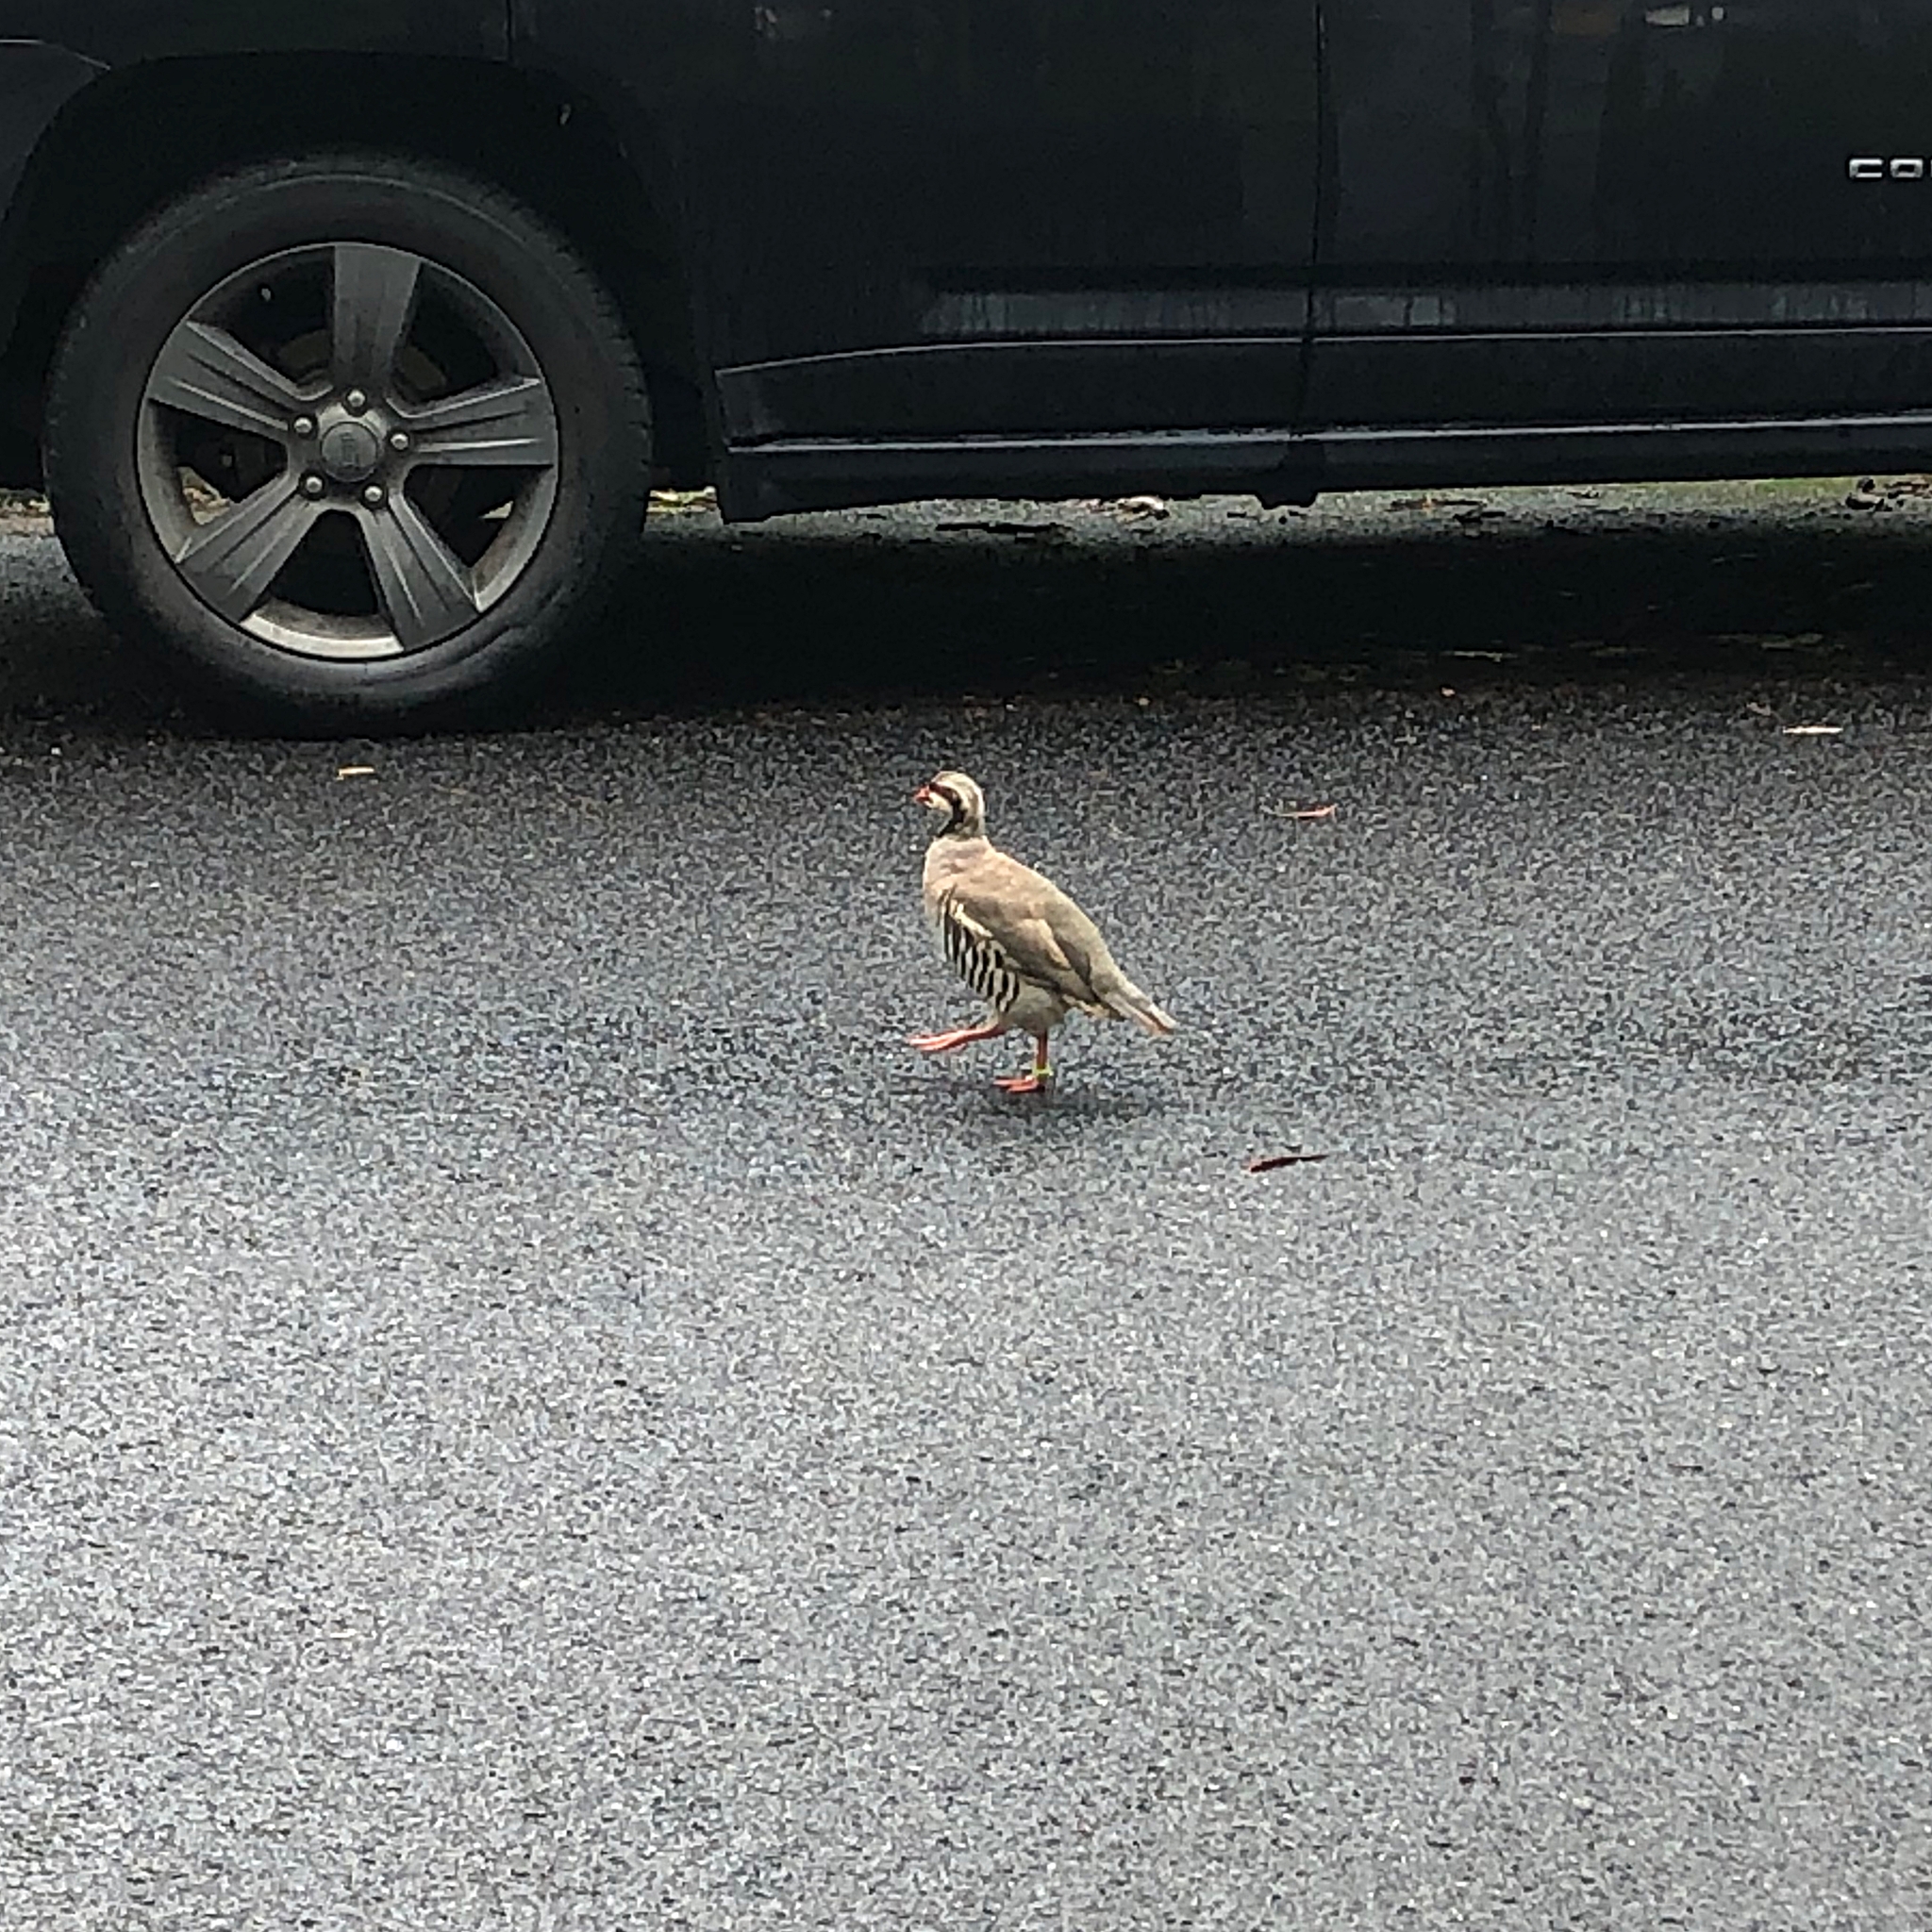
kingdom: Animalia
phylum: Chordata
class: Aves
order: Galliformes
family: Phasianidae
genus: Alectoris
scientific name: Alectoris chukar
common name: Chukar
